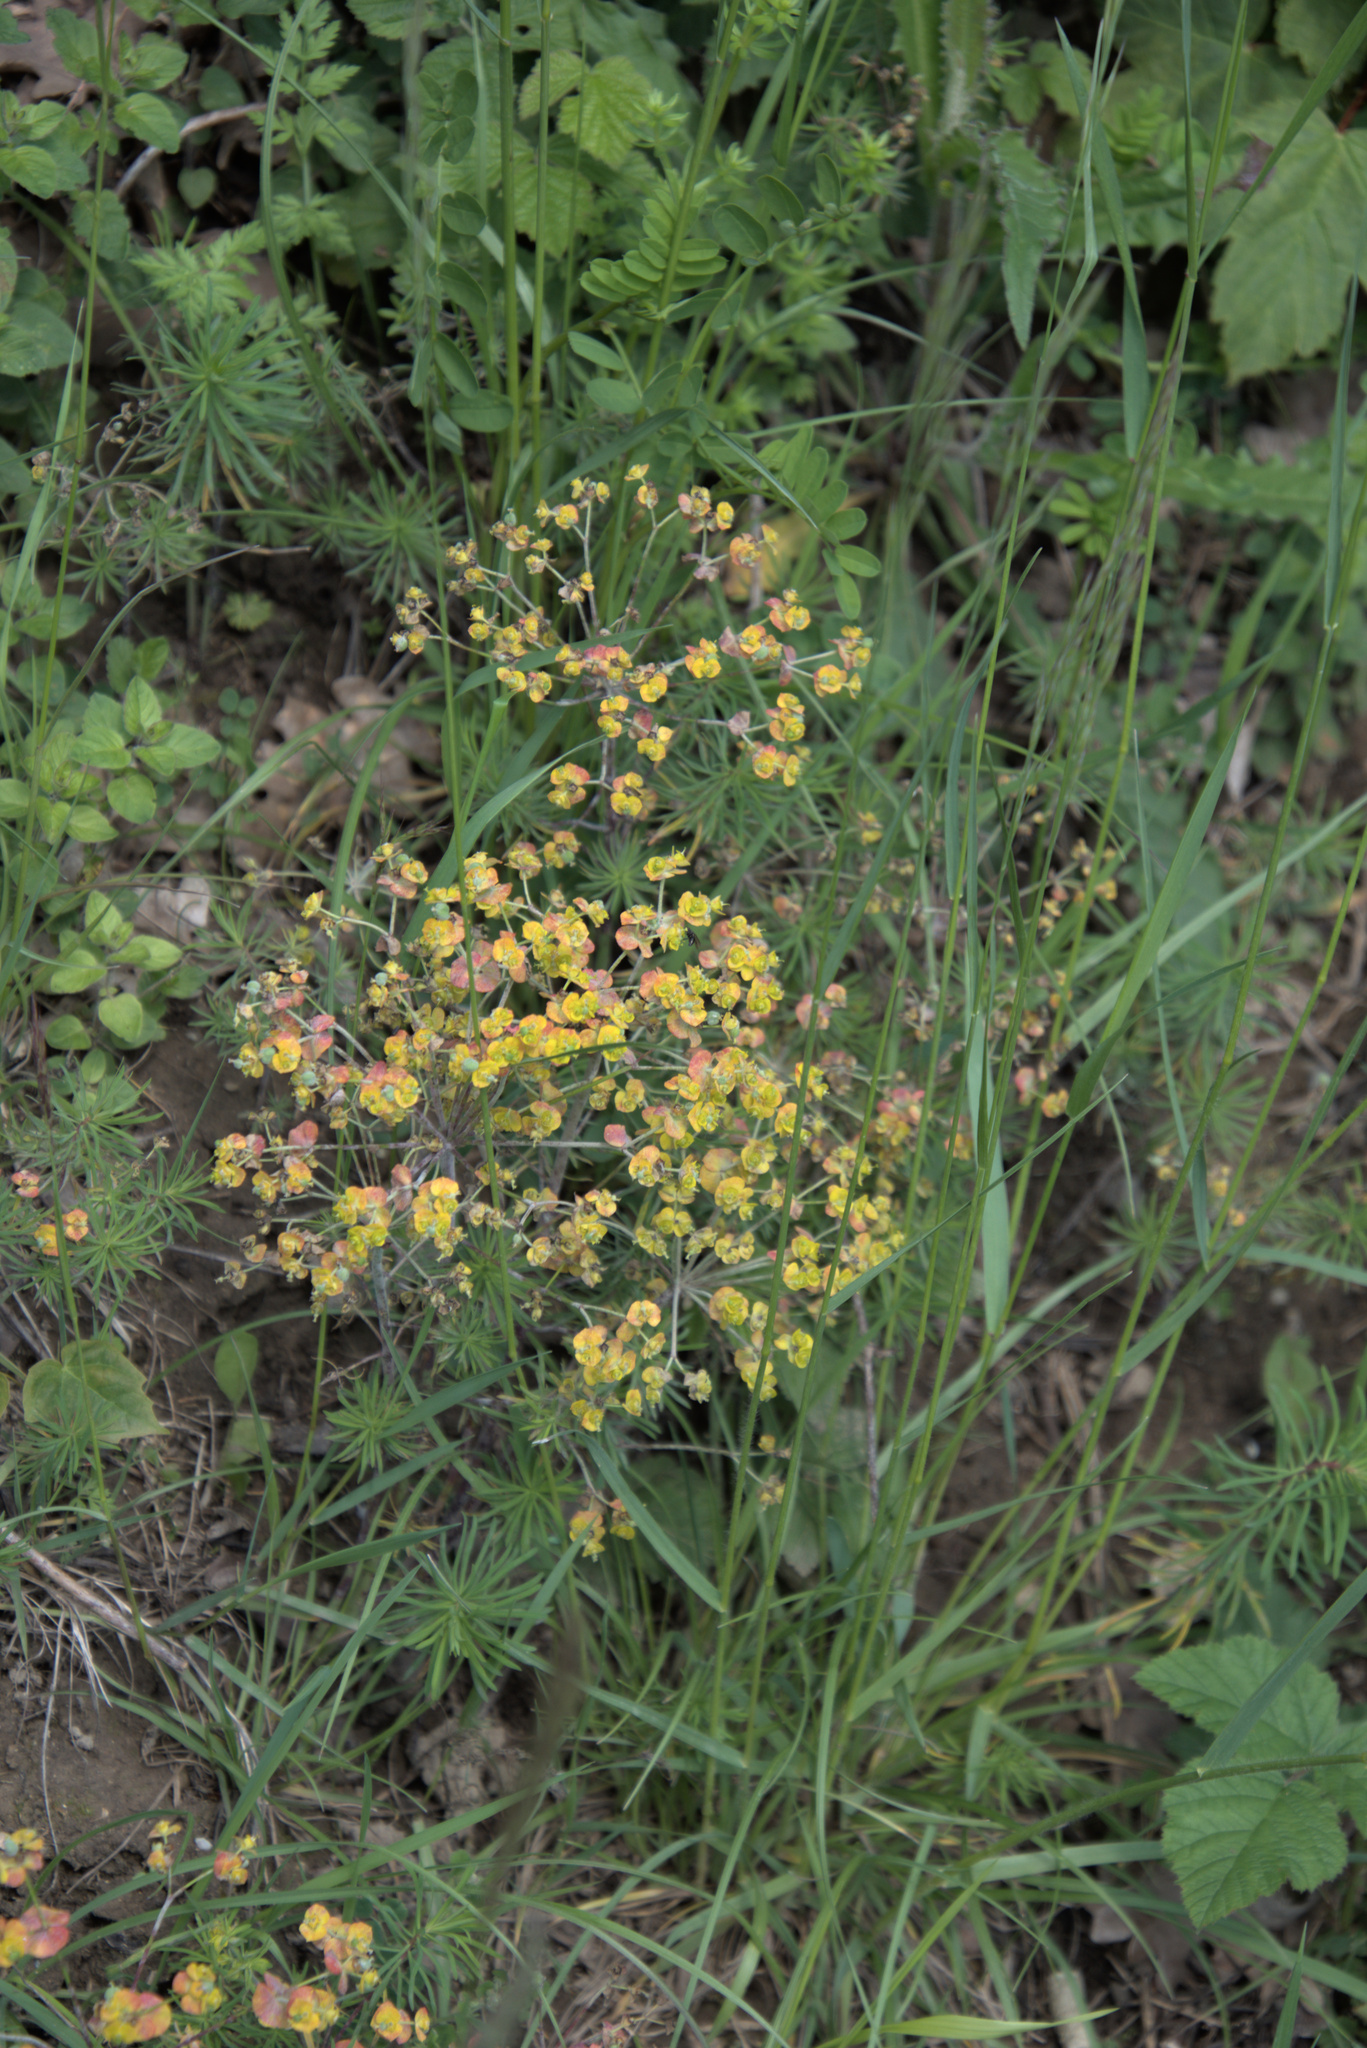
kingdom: Plantae
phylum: Tracheophyta
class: Magnoliopsida
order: Malpighiales
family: Euphorbiaceae
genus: Euphorbia
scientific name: Euphorbia cyparissias
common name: Cypress spurge
